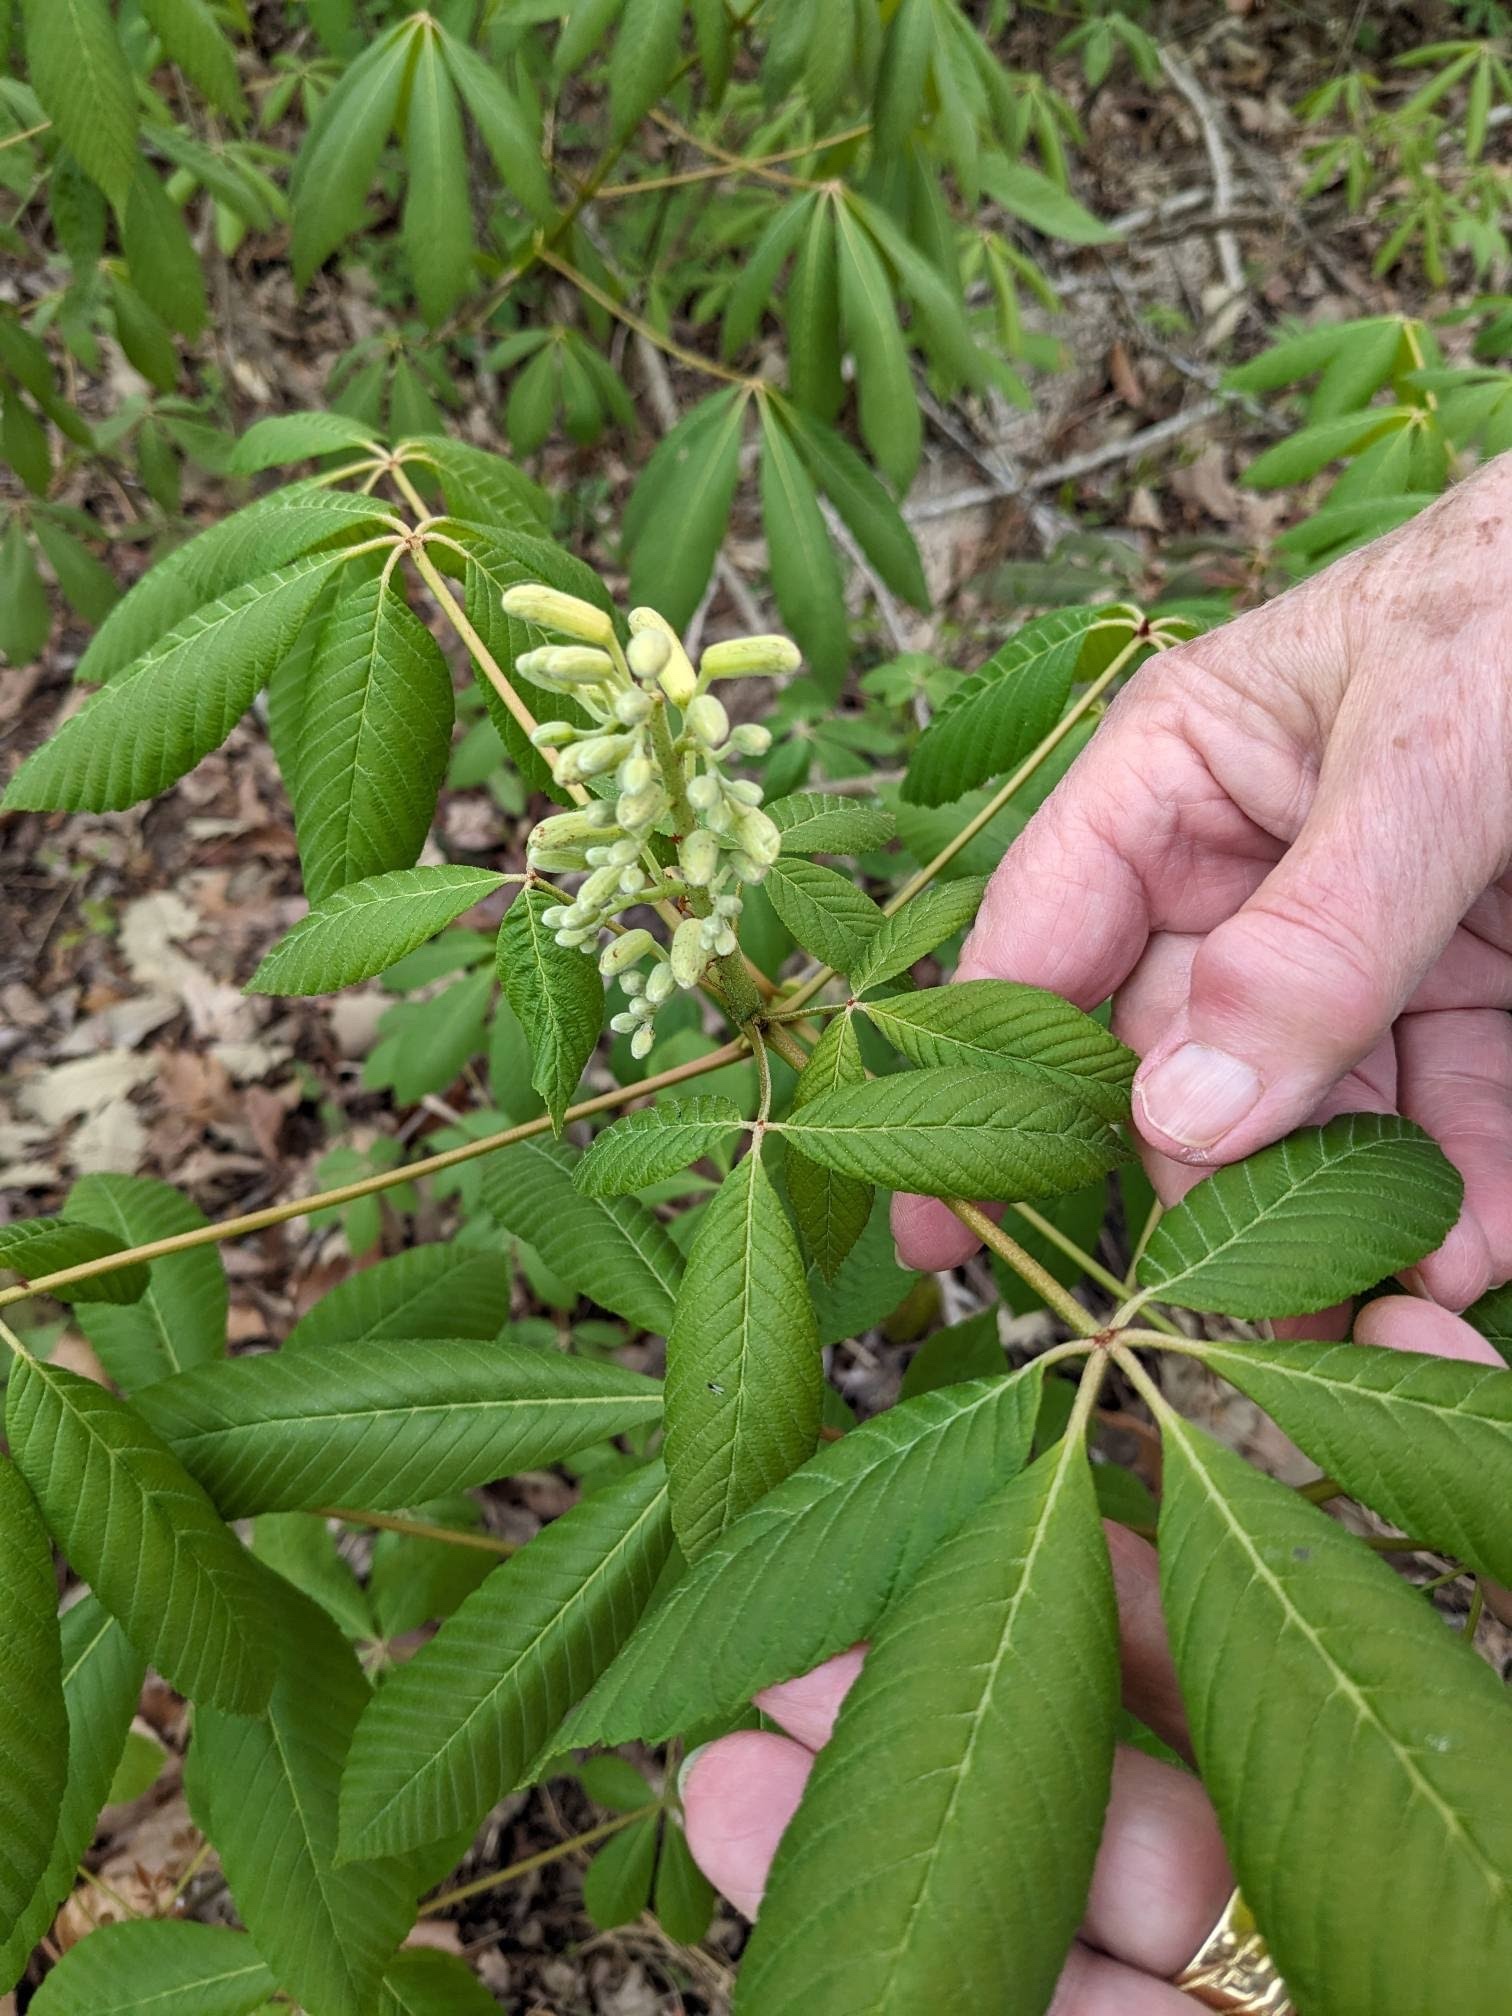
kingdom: Plantae
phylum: Tracheophyta
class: Magnoliopsida
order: Sapindales
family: Sapindaceae
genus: Aesculus
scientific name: Aesculus sylvatica
